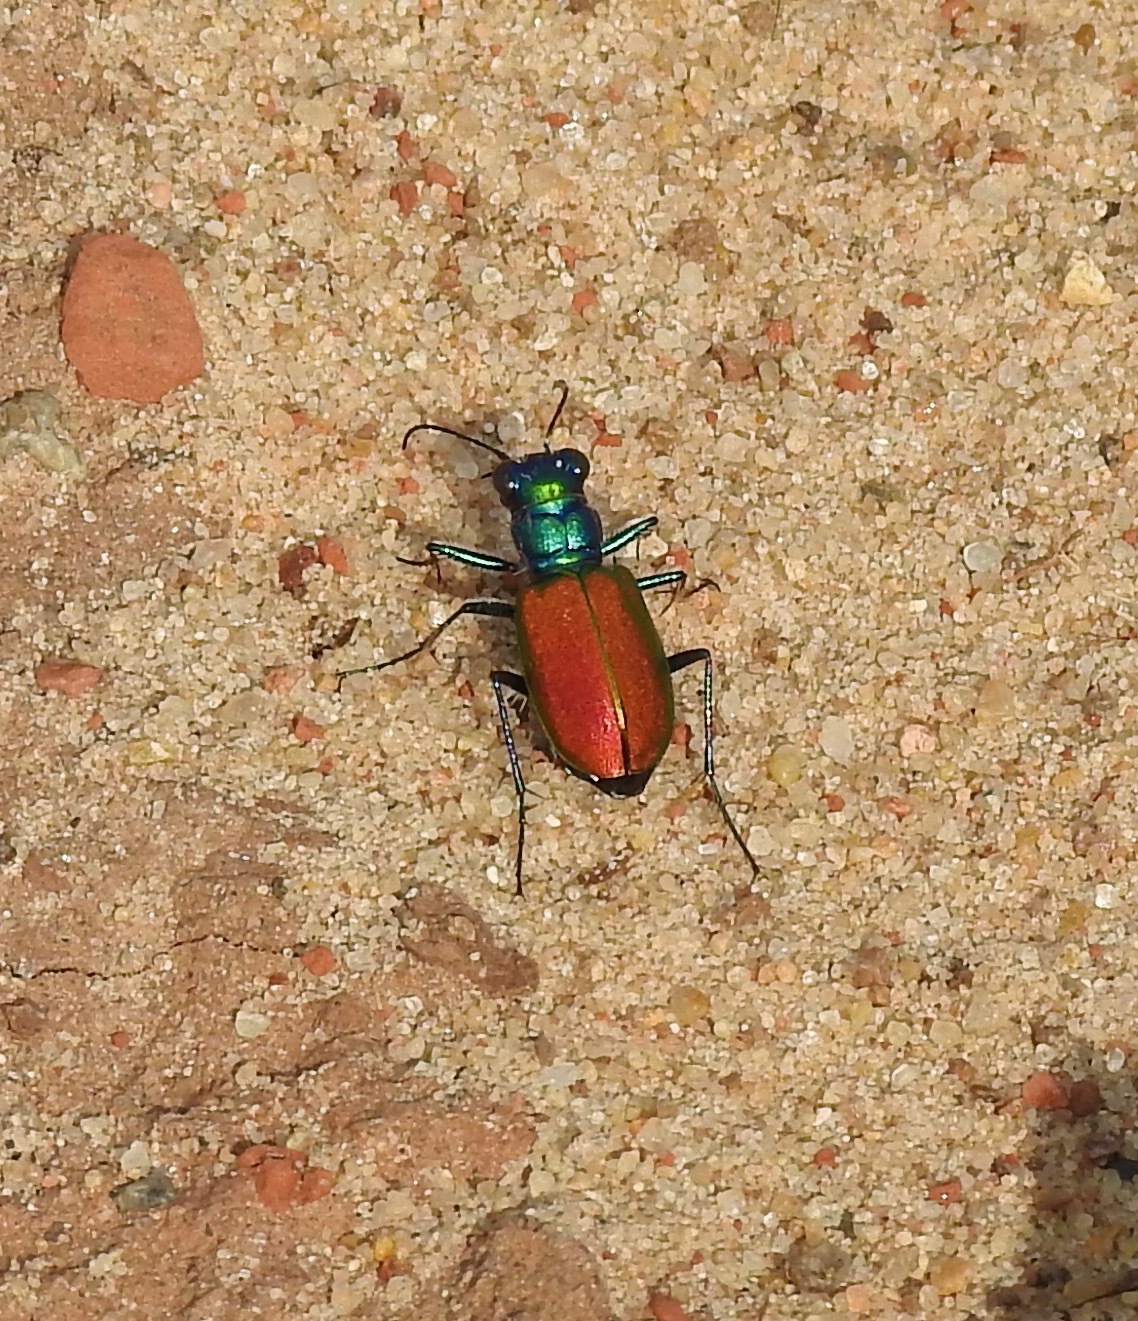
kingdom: Animalia
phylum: Arthropoda
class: Insecta
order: Coleoptera
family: Carabidae
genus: Cicindela
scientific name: Cicindela scutellaris
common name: Festive tiger beetle
